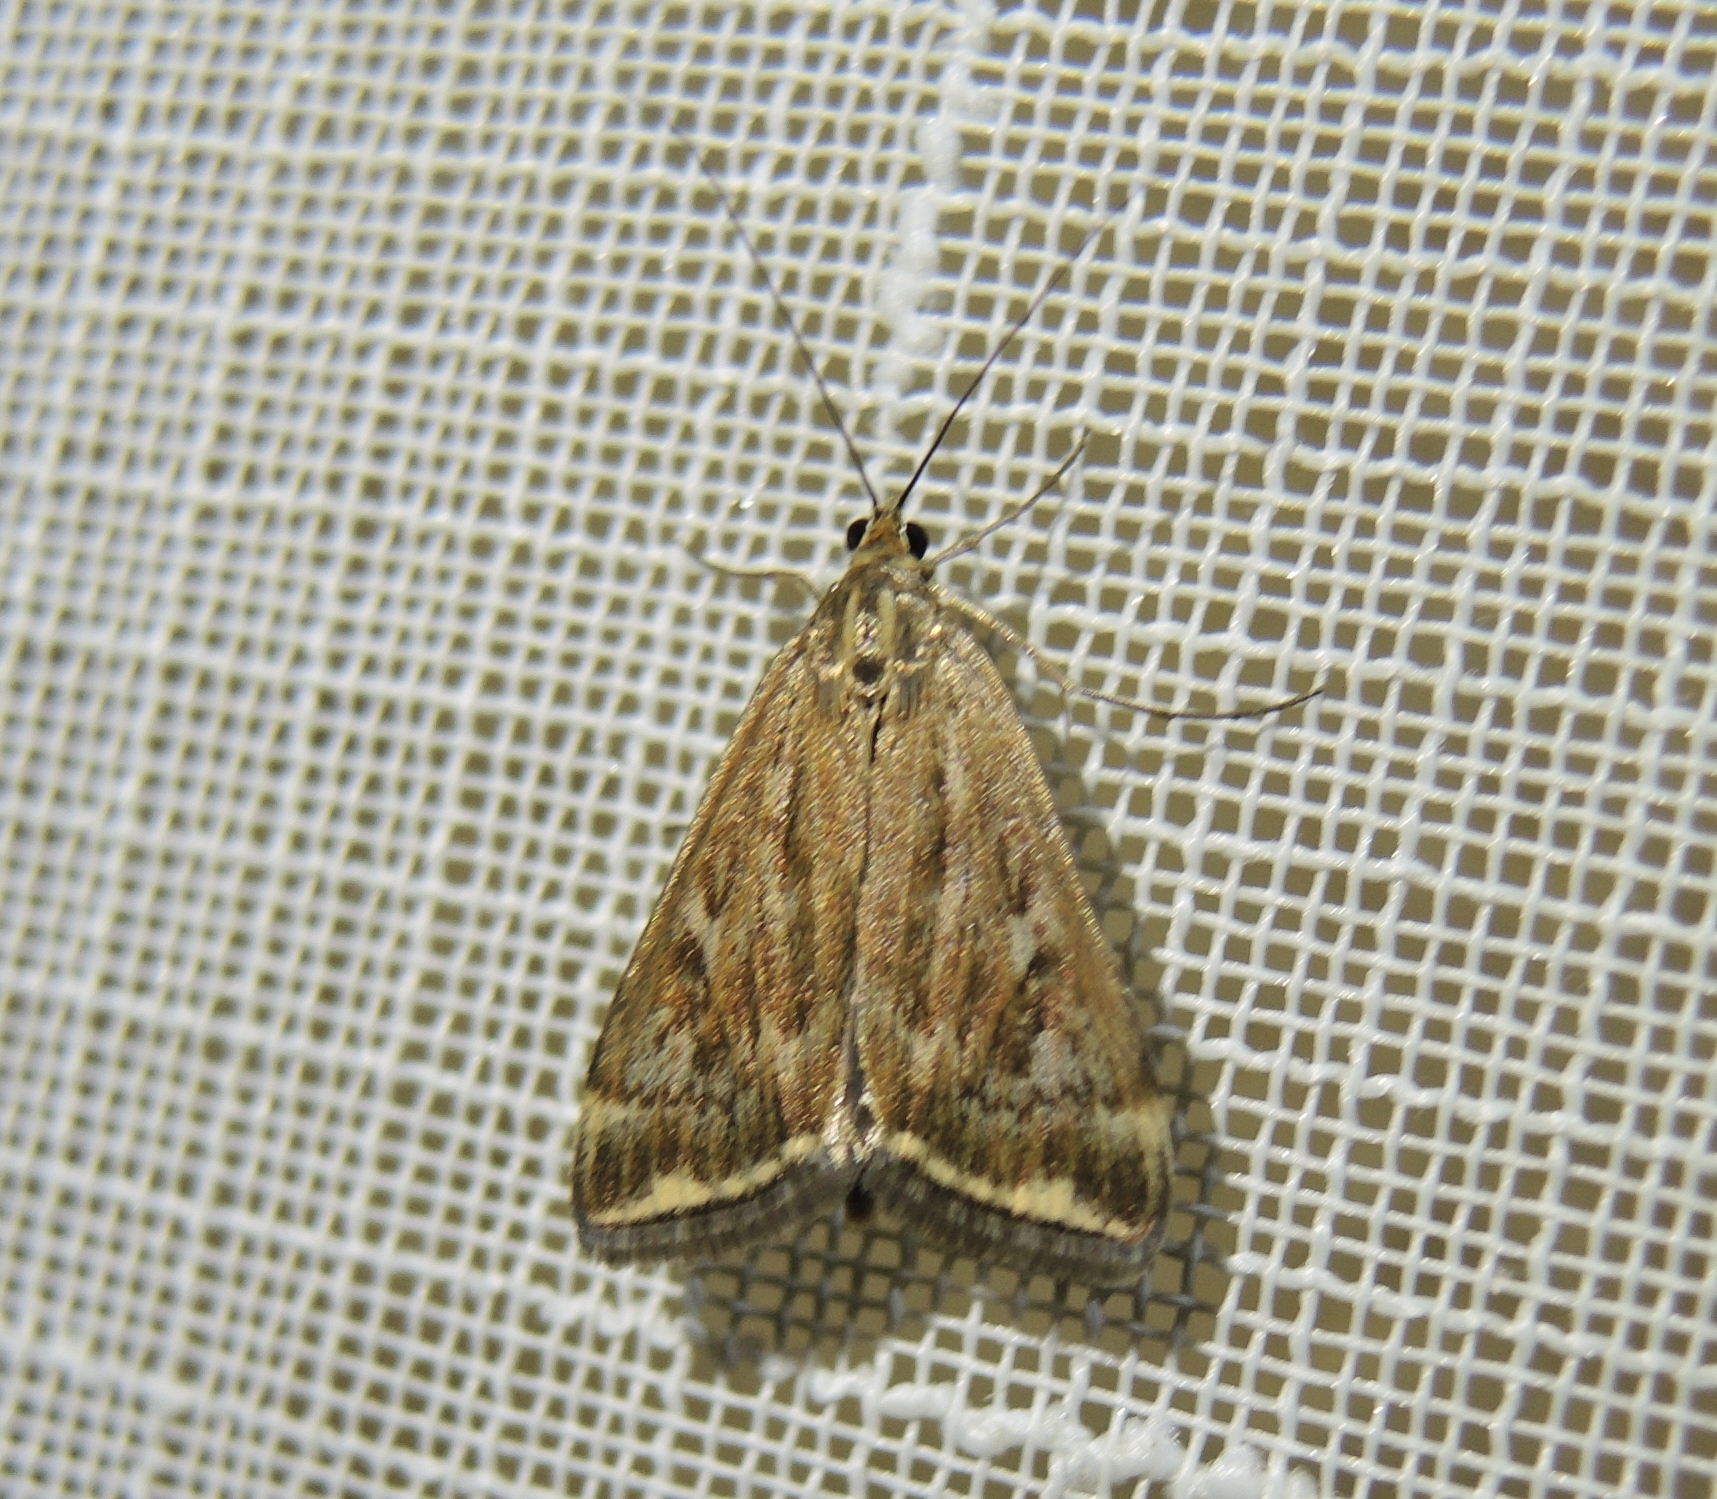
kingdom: Animalia
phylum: Arthropoda
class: Insecta
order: Lepidoptera
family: Crambidae
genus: Loxostege
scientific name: Loxostege sticticalis
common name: Crambid moth
